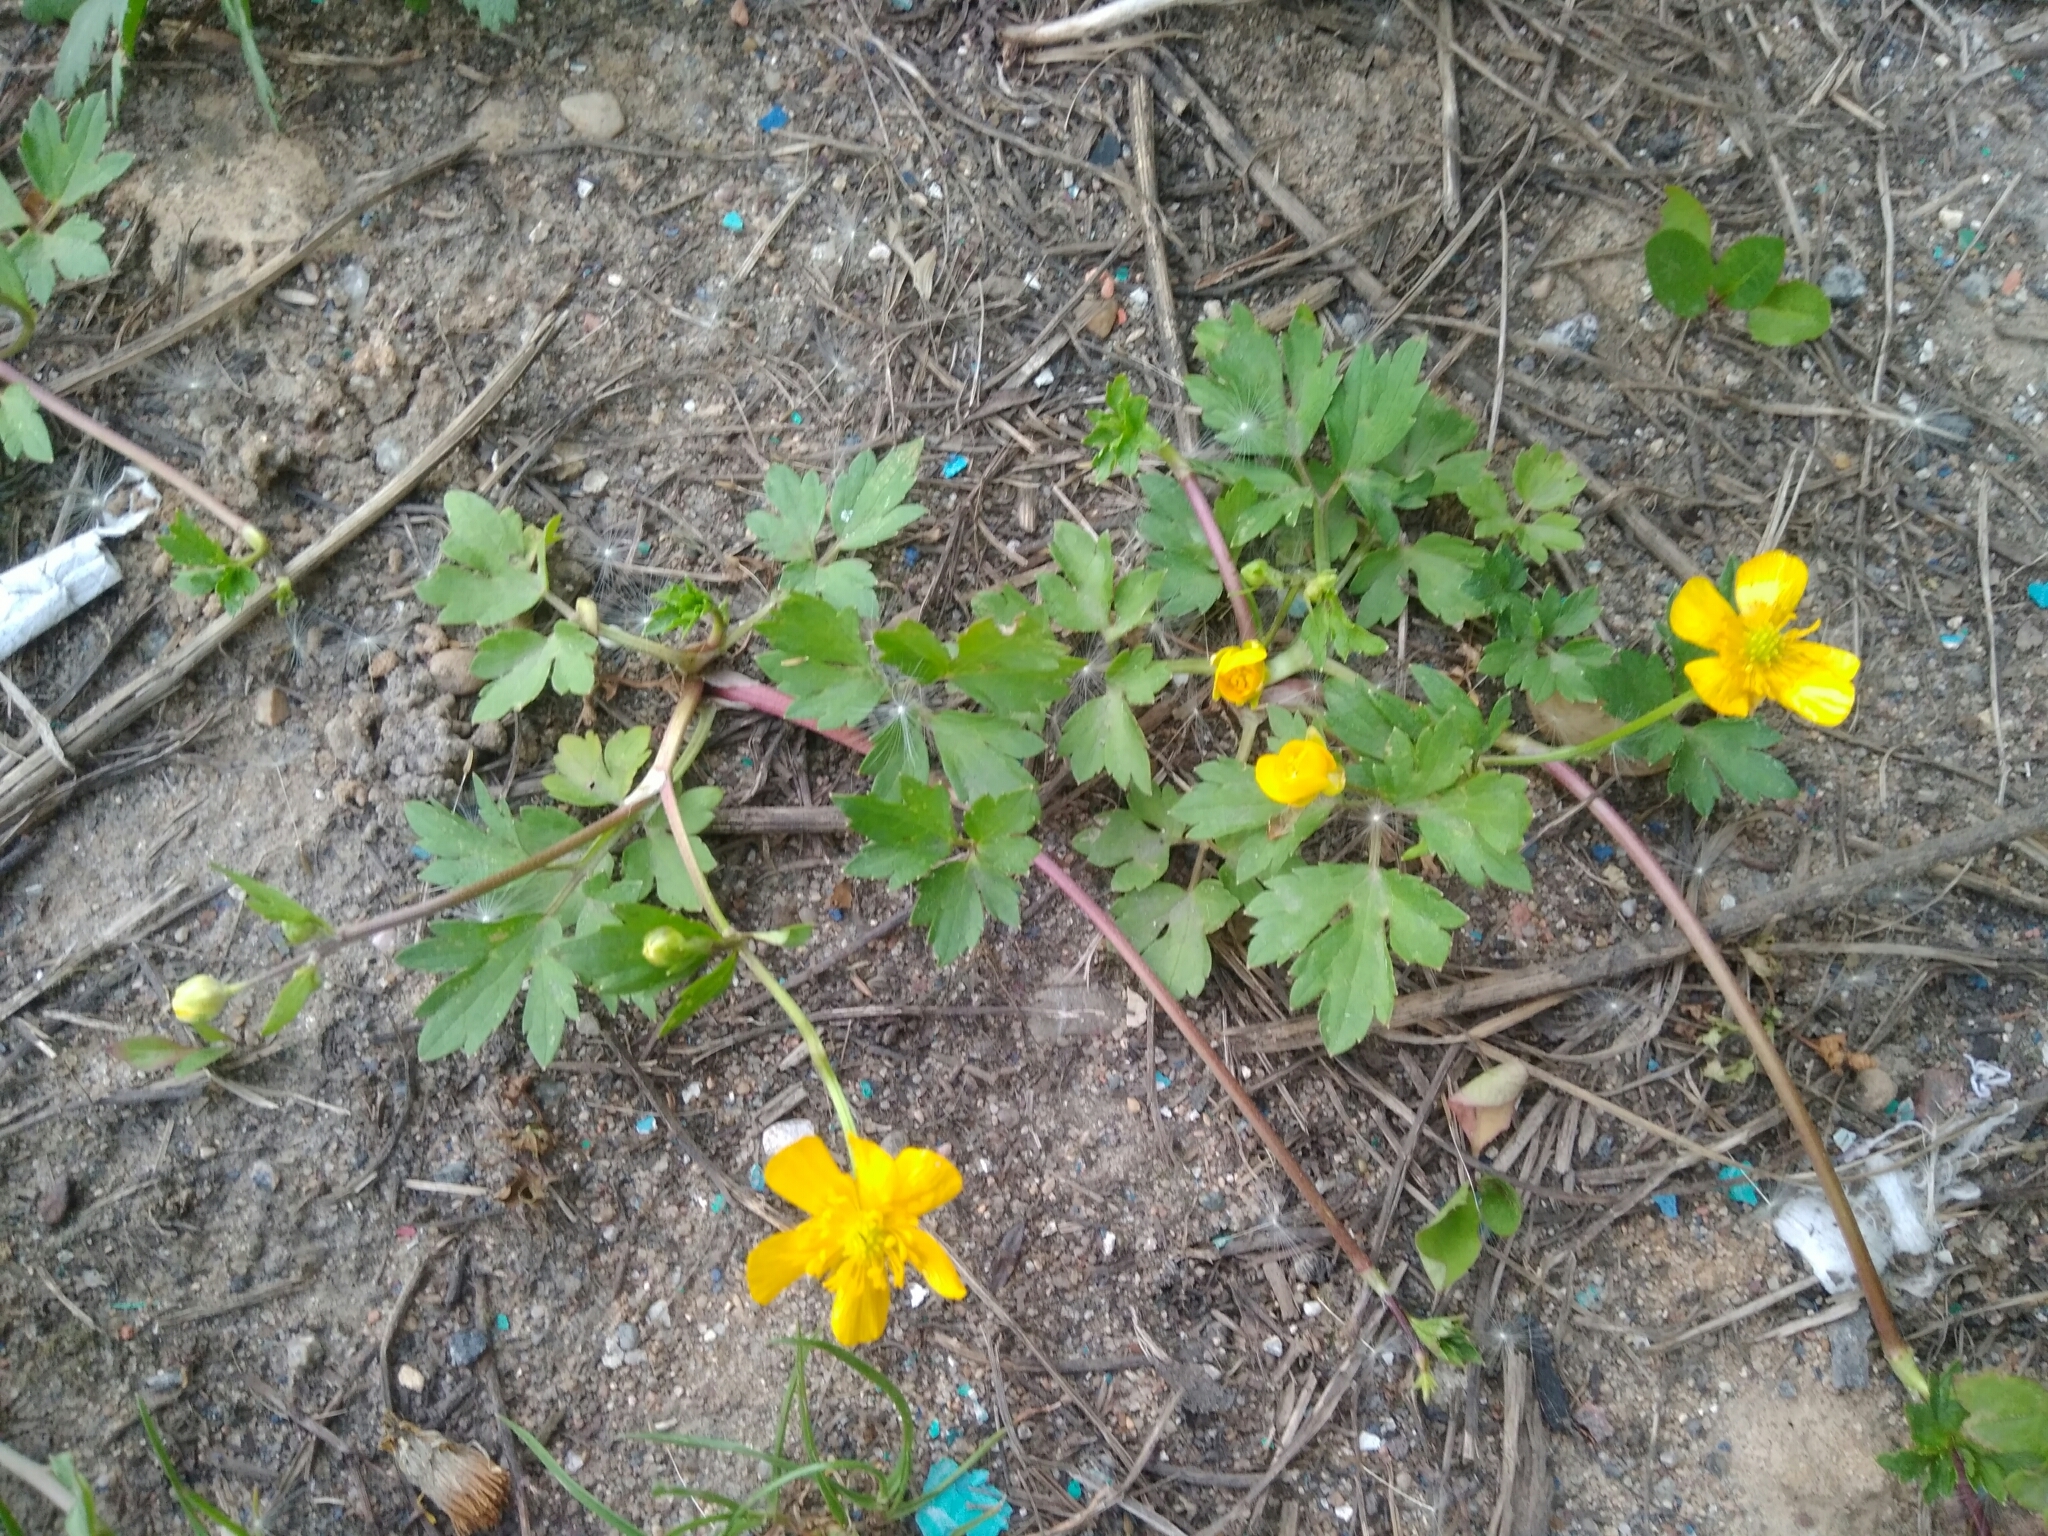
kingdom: Plantae
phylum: Tracheophyta
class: Magnoliopsida
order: Ranunculales
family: Ranunculaceae
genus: Ranunculus
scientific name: Ranunculus repens
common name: Creeping buttercup
